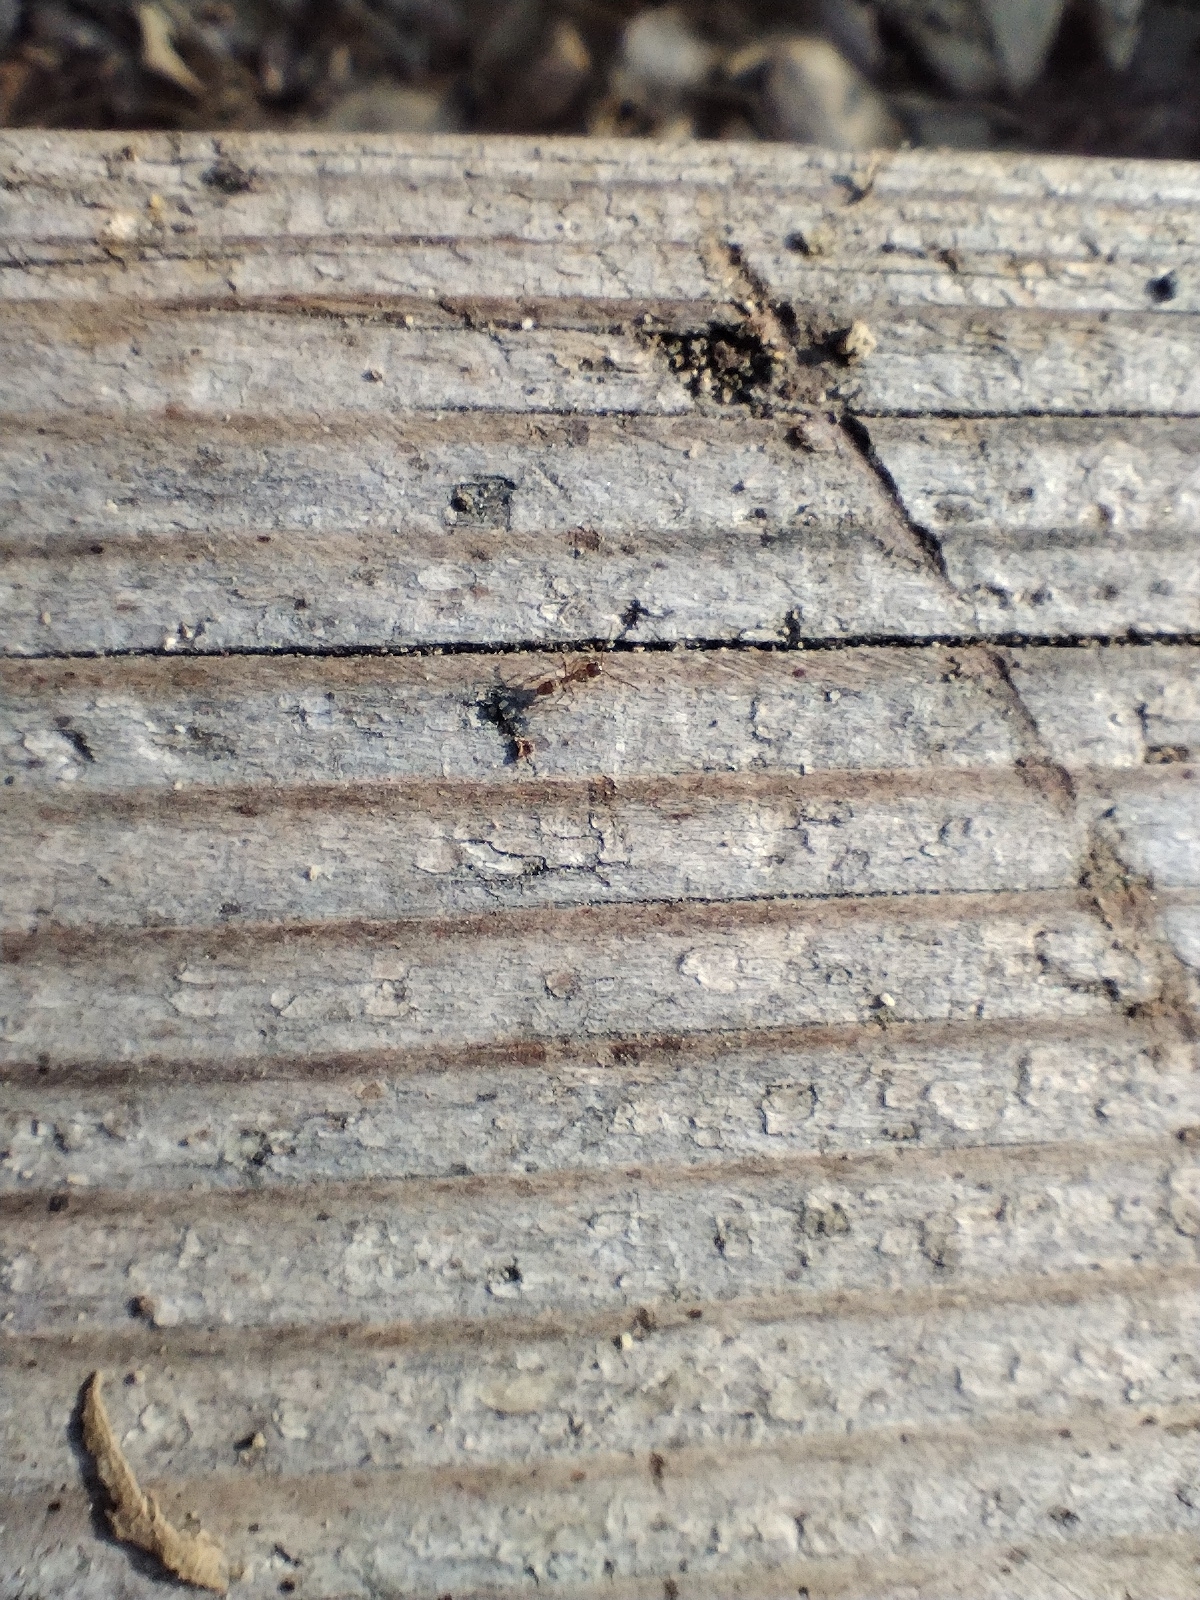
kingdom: Animalia
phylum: Arthropoda
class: Insecta
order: Coleoptera
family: Coccinellidae
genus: Harmonia
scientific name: Harmonia axyridis
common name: Harlequin ladybird
